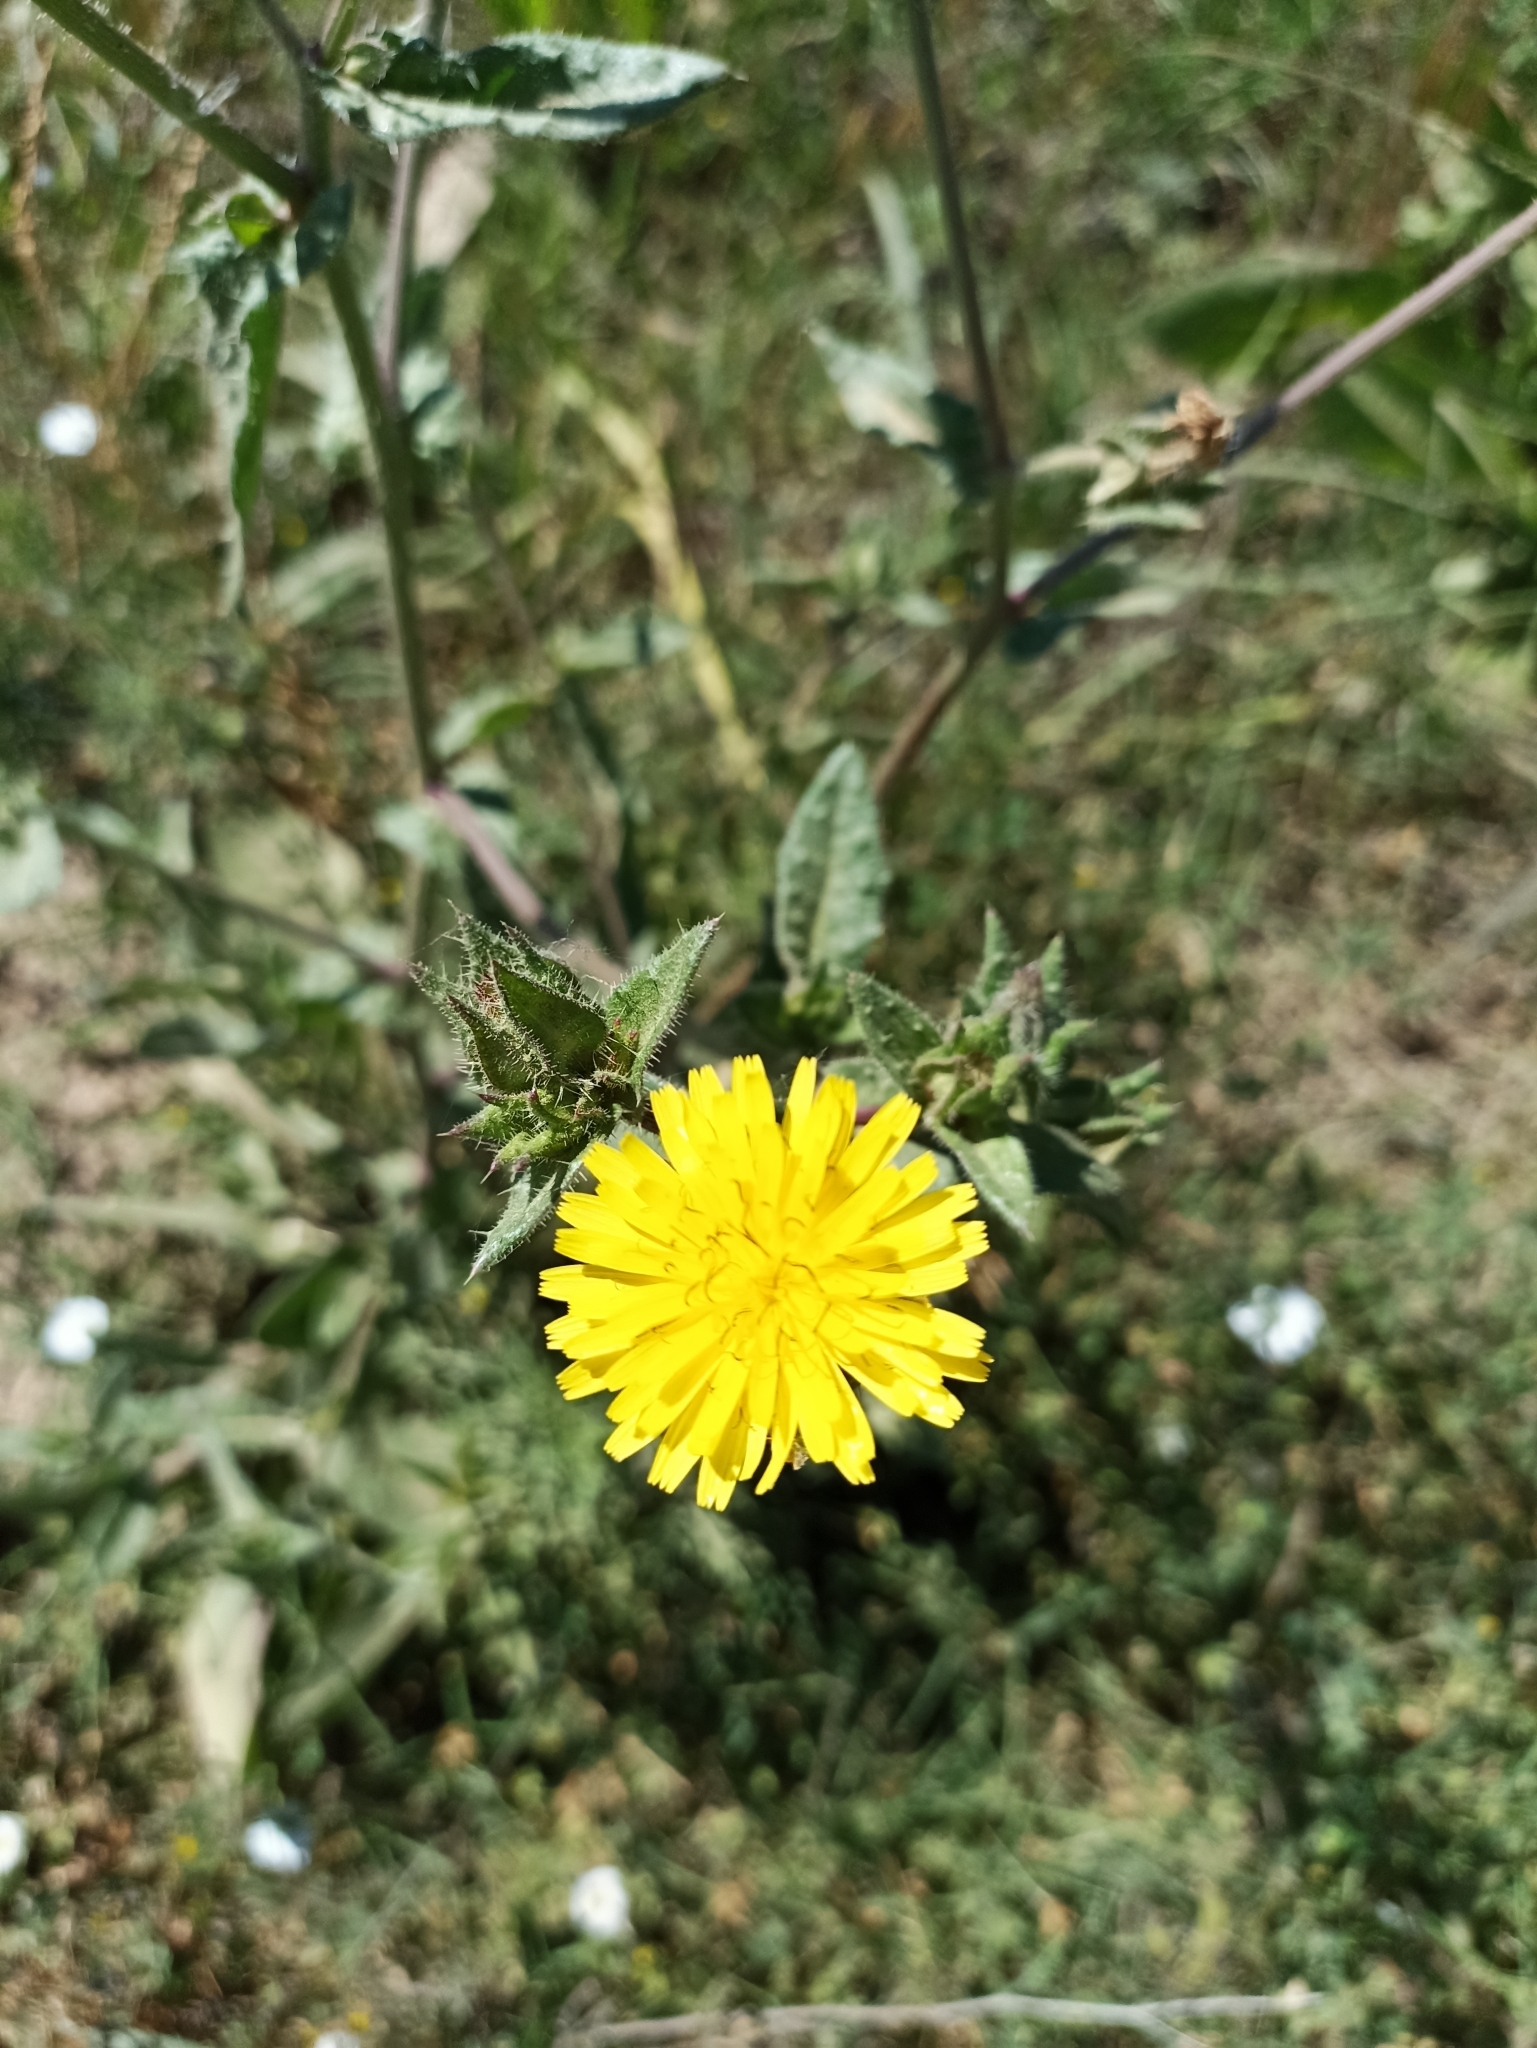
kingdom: Plantae
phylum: Tracheophyta
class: Magnoliopsida
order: Asterales
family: Asteraceae
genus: Helminthotheca
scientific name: Helminthotheca echioides
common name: Ox-tongue
